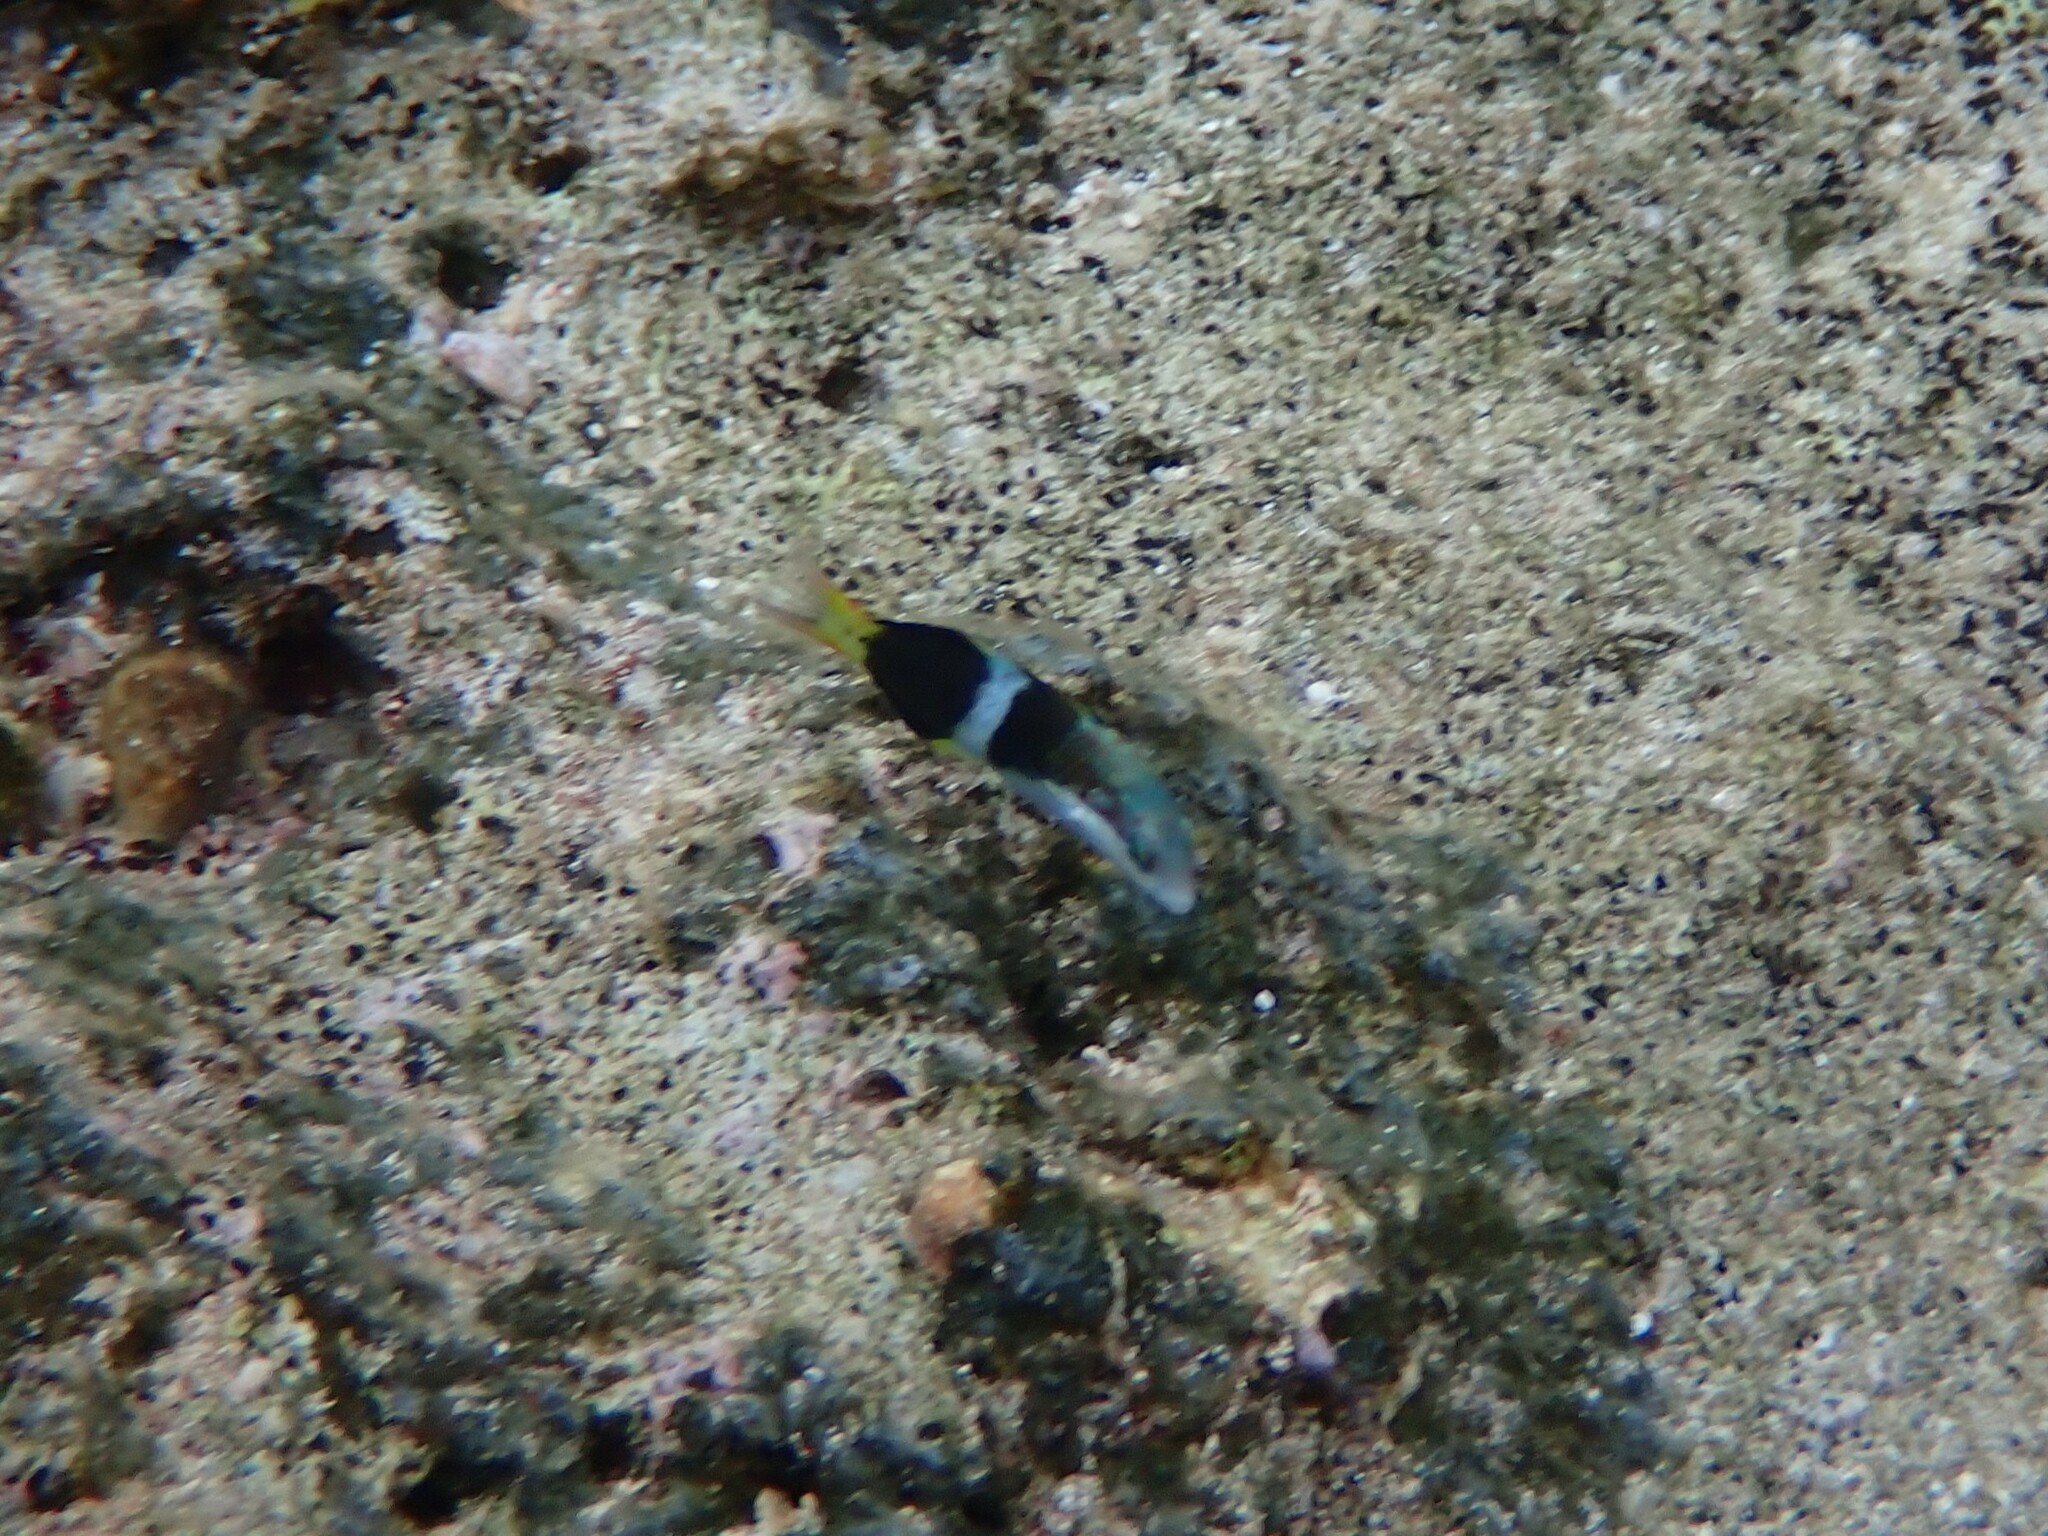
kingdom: Animalia
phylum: Chordata
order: Perciformes
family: Labridae
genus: Thalassoma
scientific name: Thalassoma nigrofasciatum
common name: Black-barred wrasse
